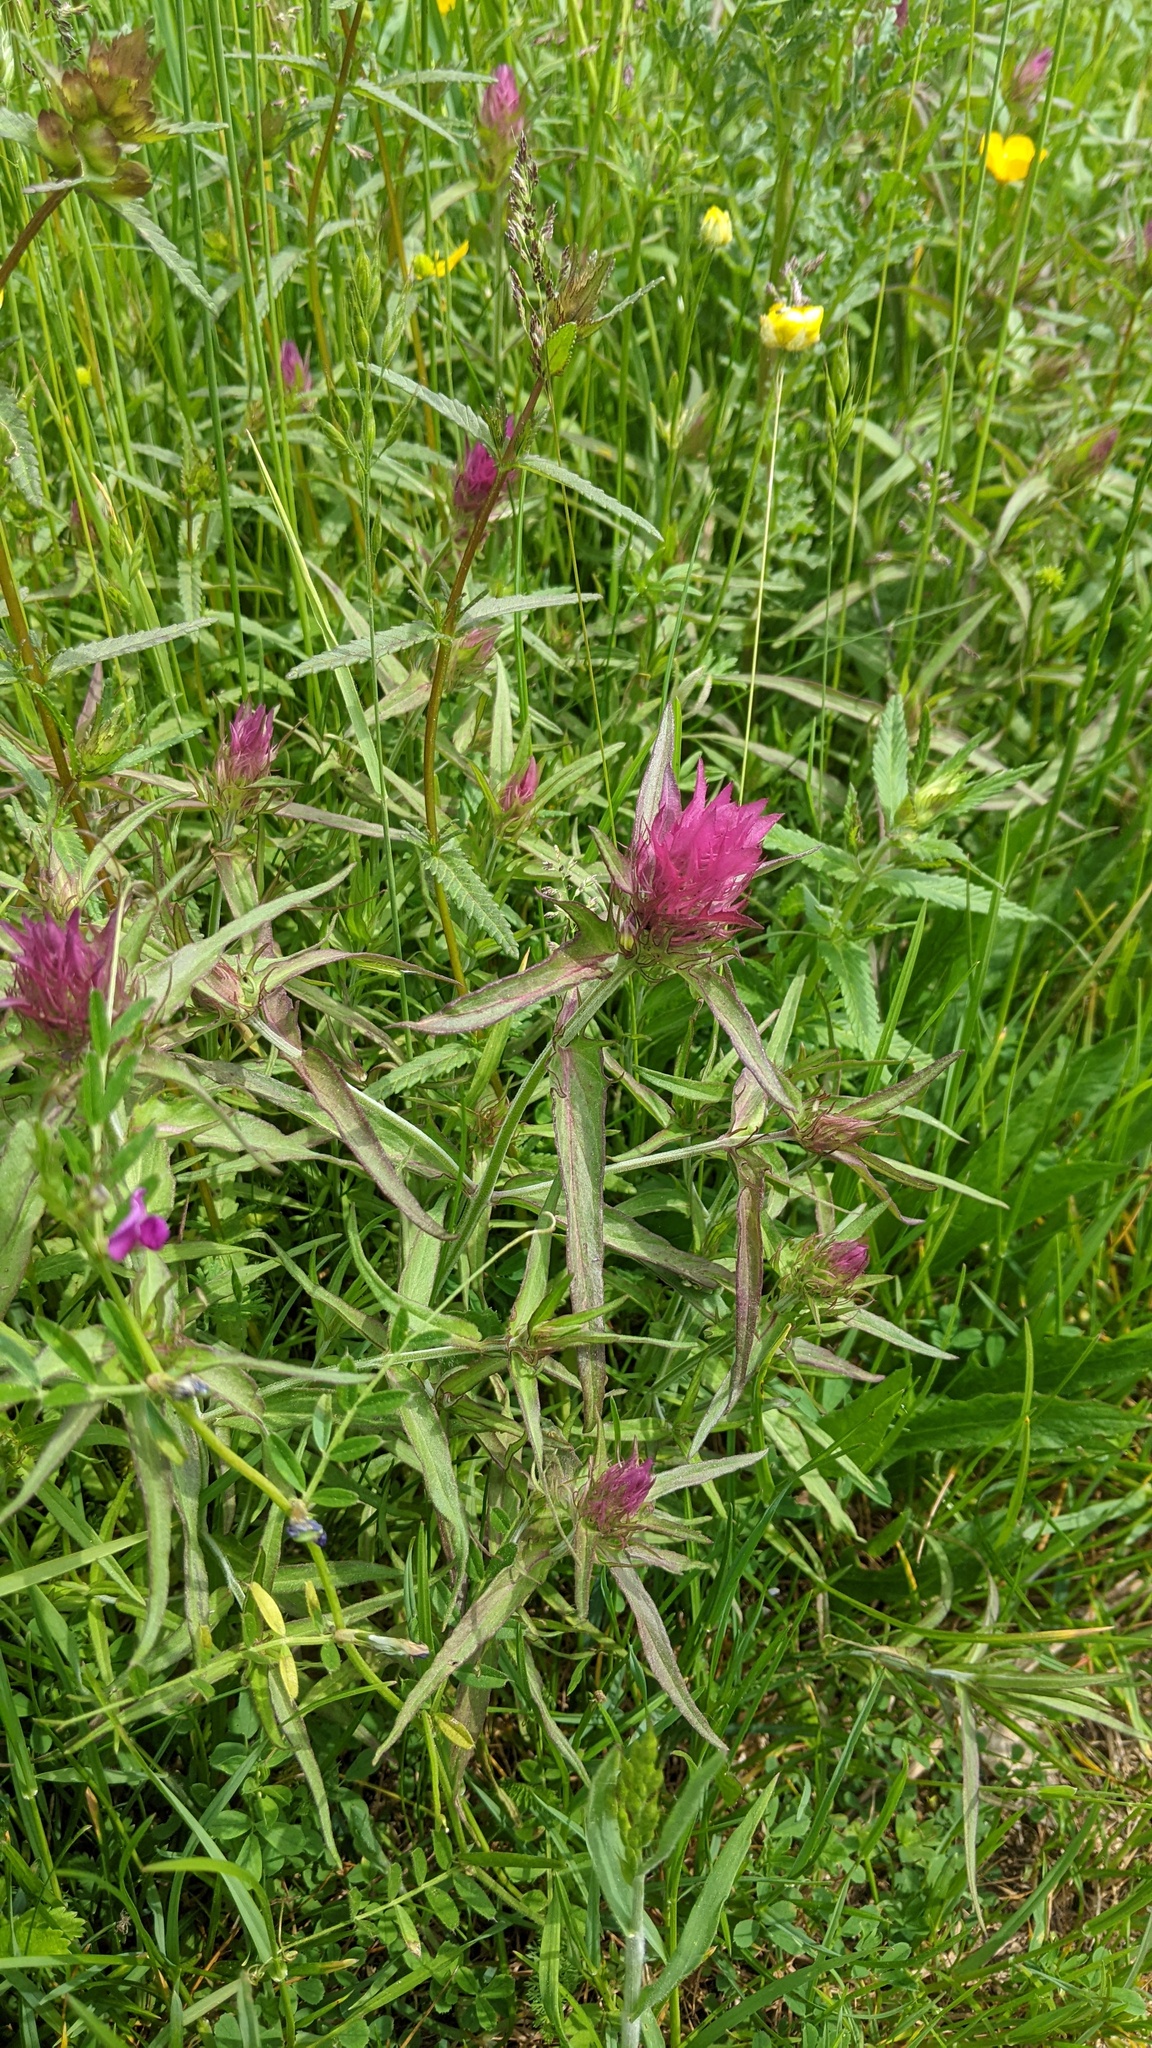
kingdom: Plantae
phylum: Tracheophyta
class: Magnoliopsida
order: Lamiales
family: Orobanchaceae
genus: Melampyrum
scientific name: Melampyrum arvense
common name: Field cow-wheat
